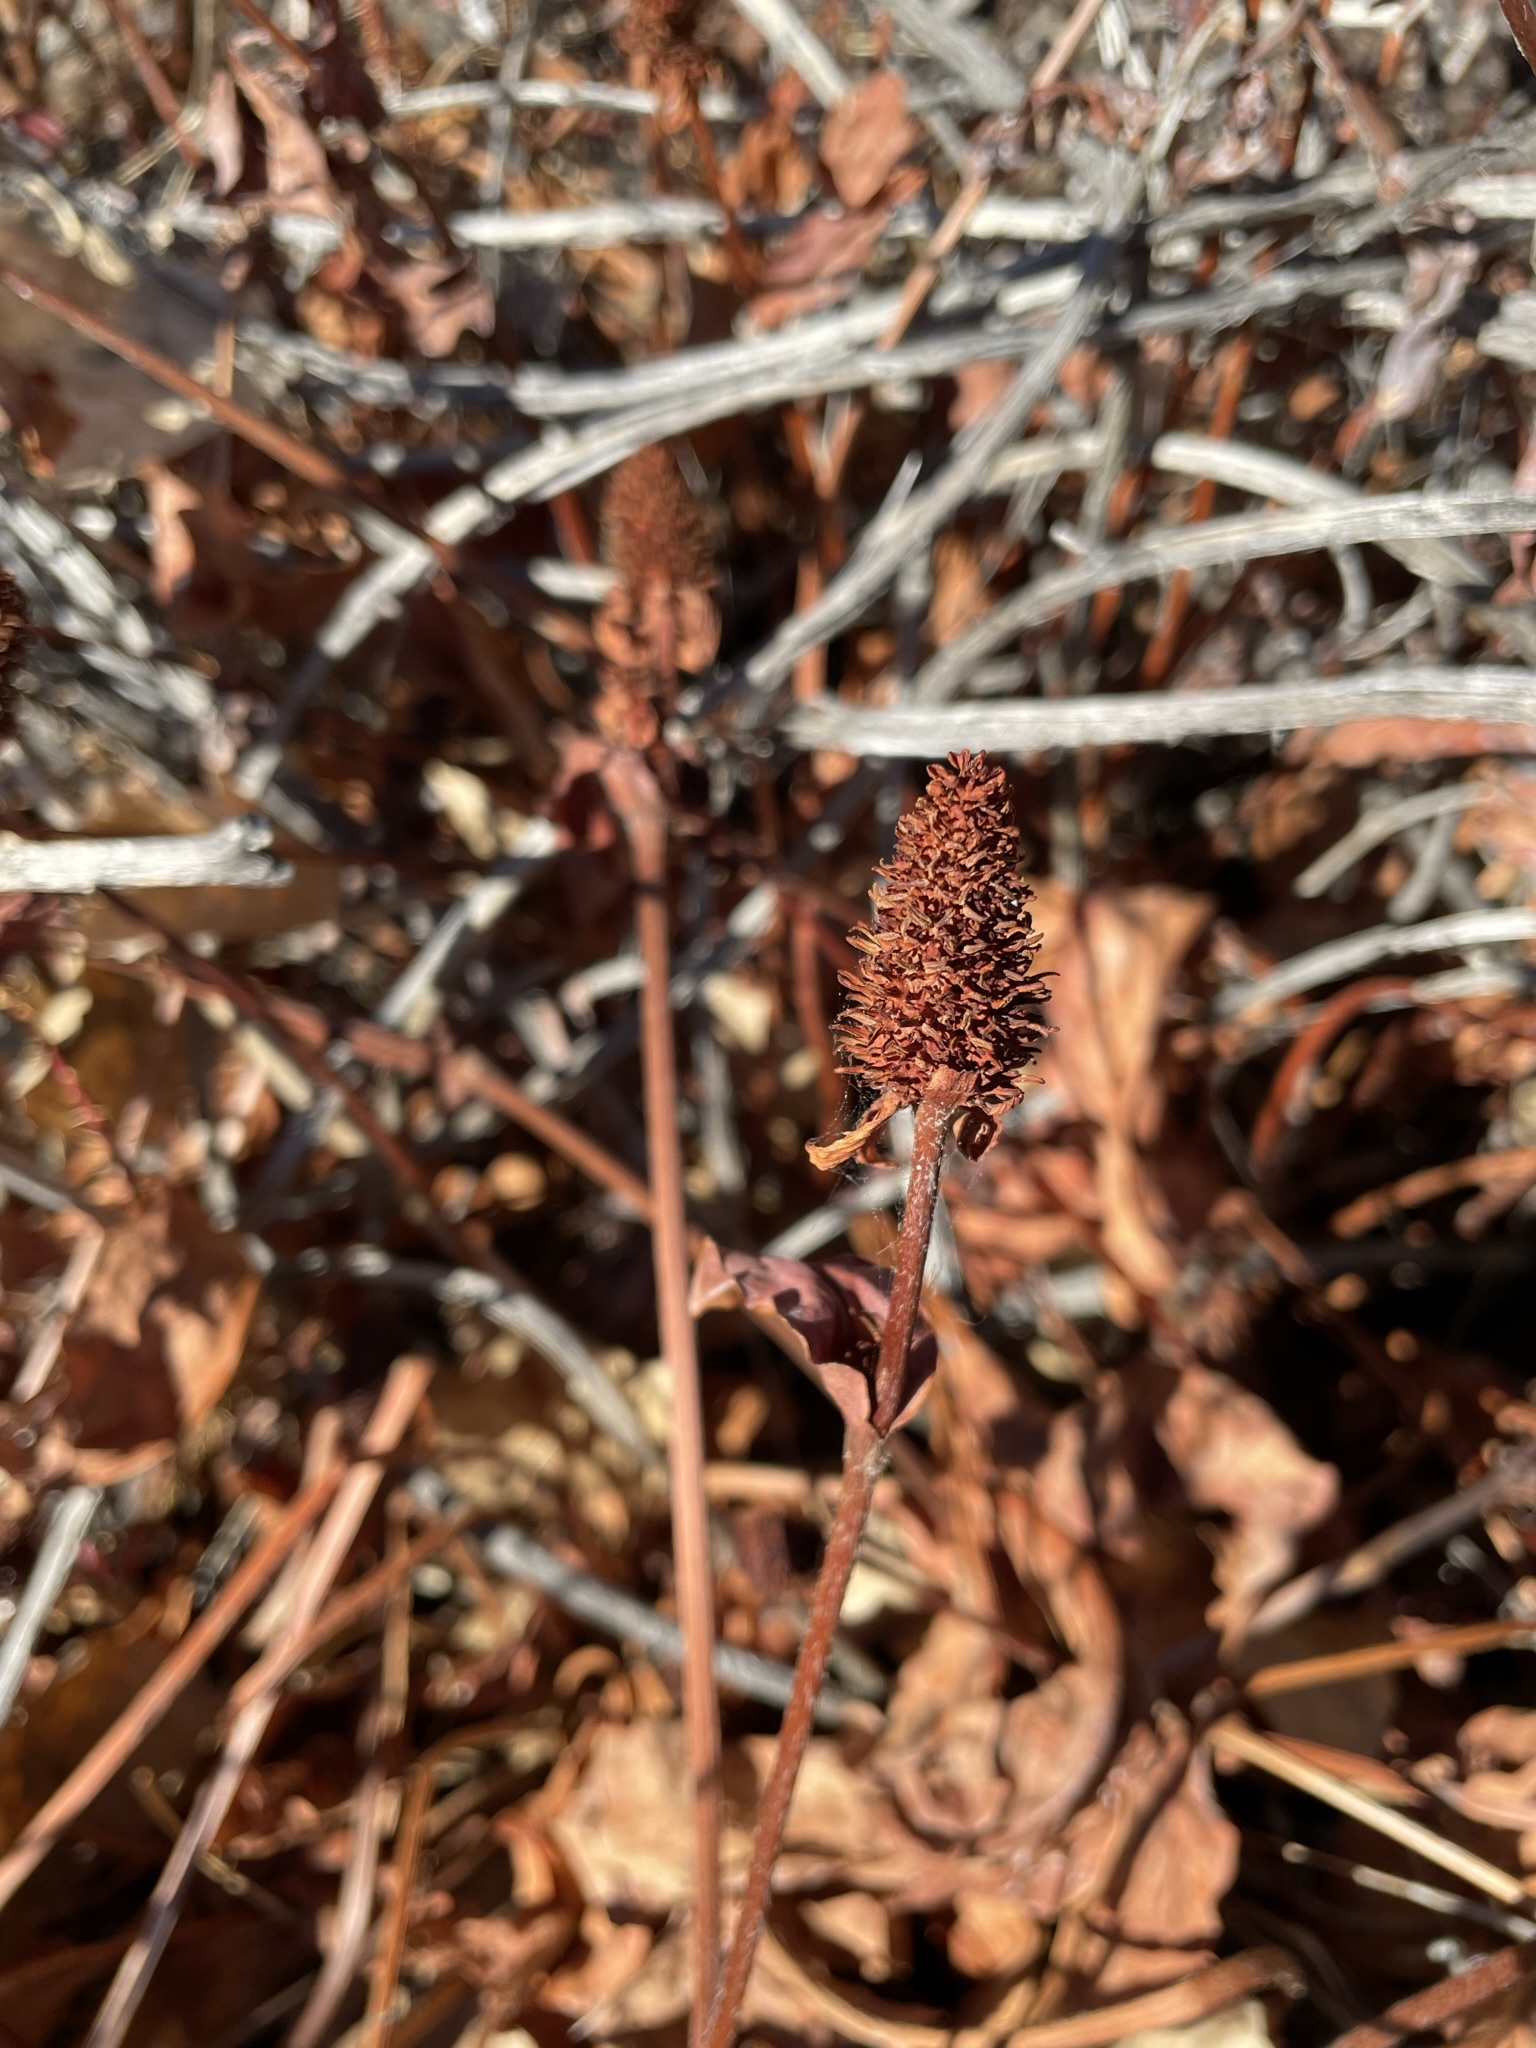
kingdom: Plantae
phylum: Tracheophyta
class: Magnoliopsida
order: Piperales
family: Saururaceae
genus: Anemopsis
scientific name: Anemopsis californica
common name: Apache-beads
